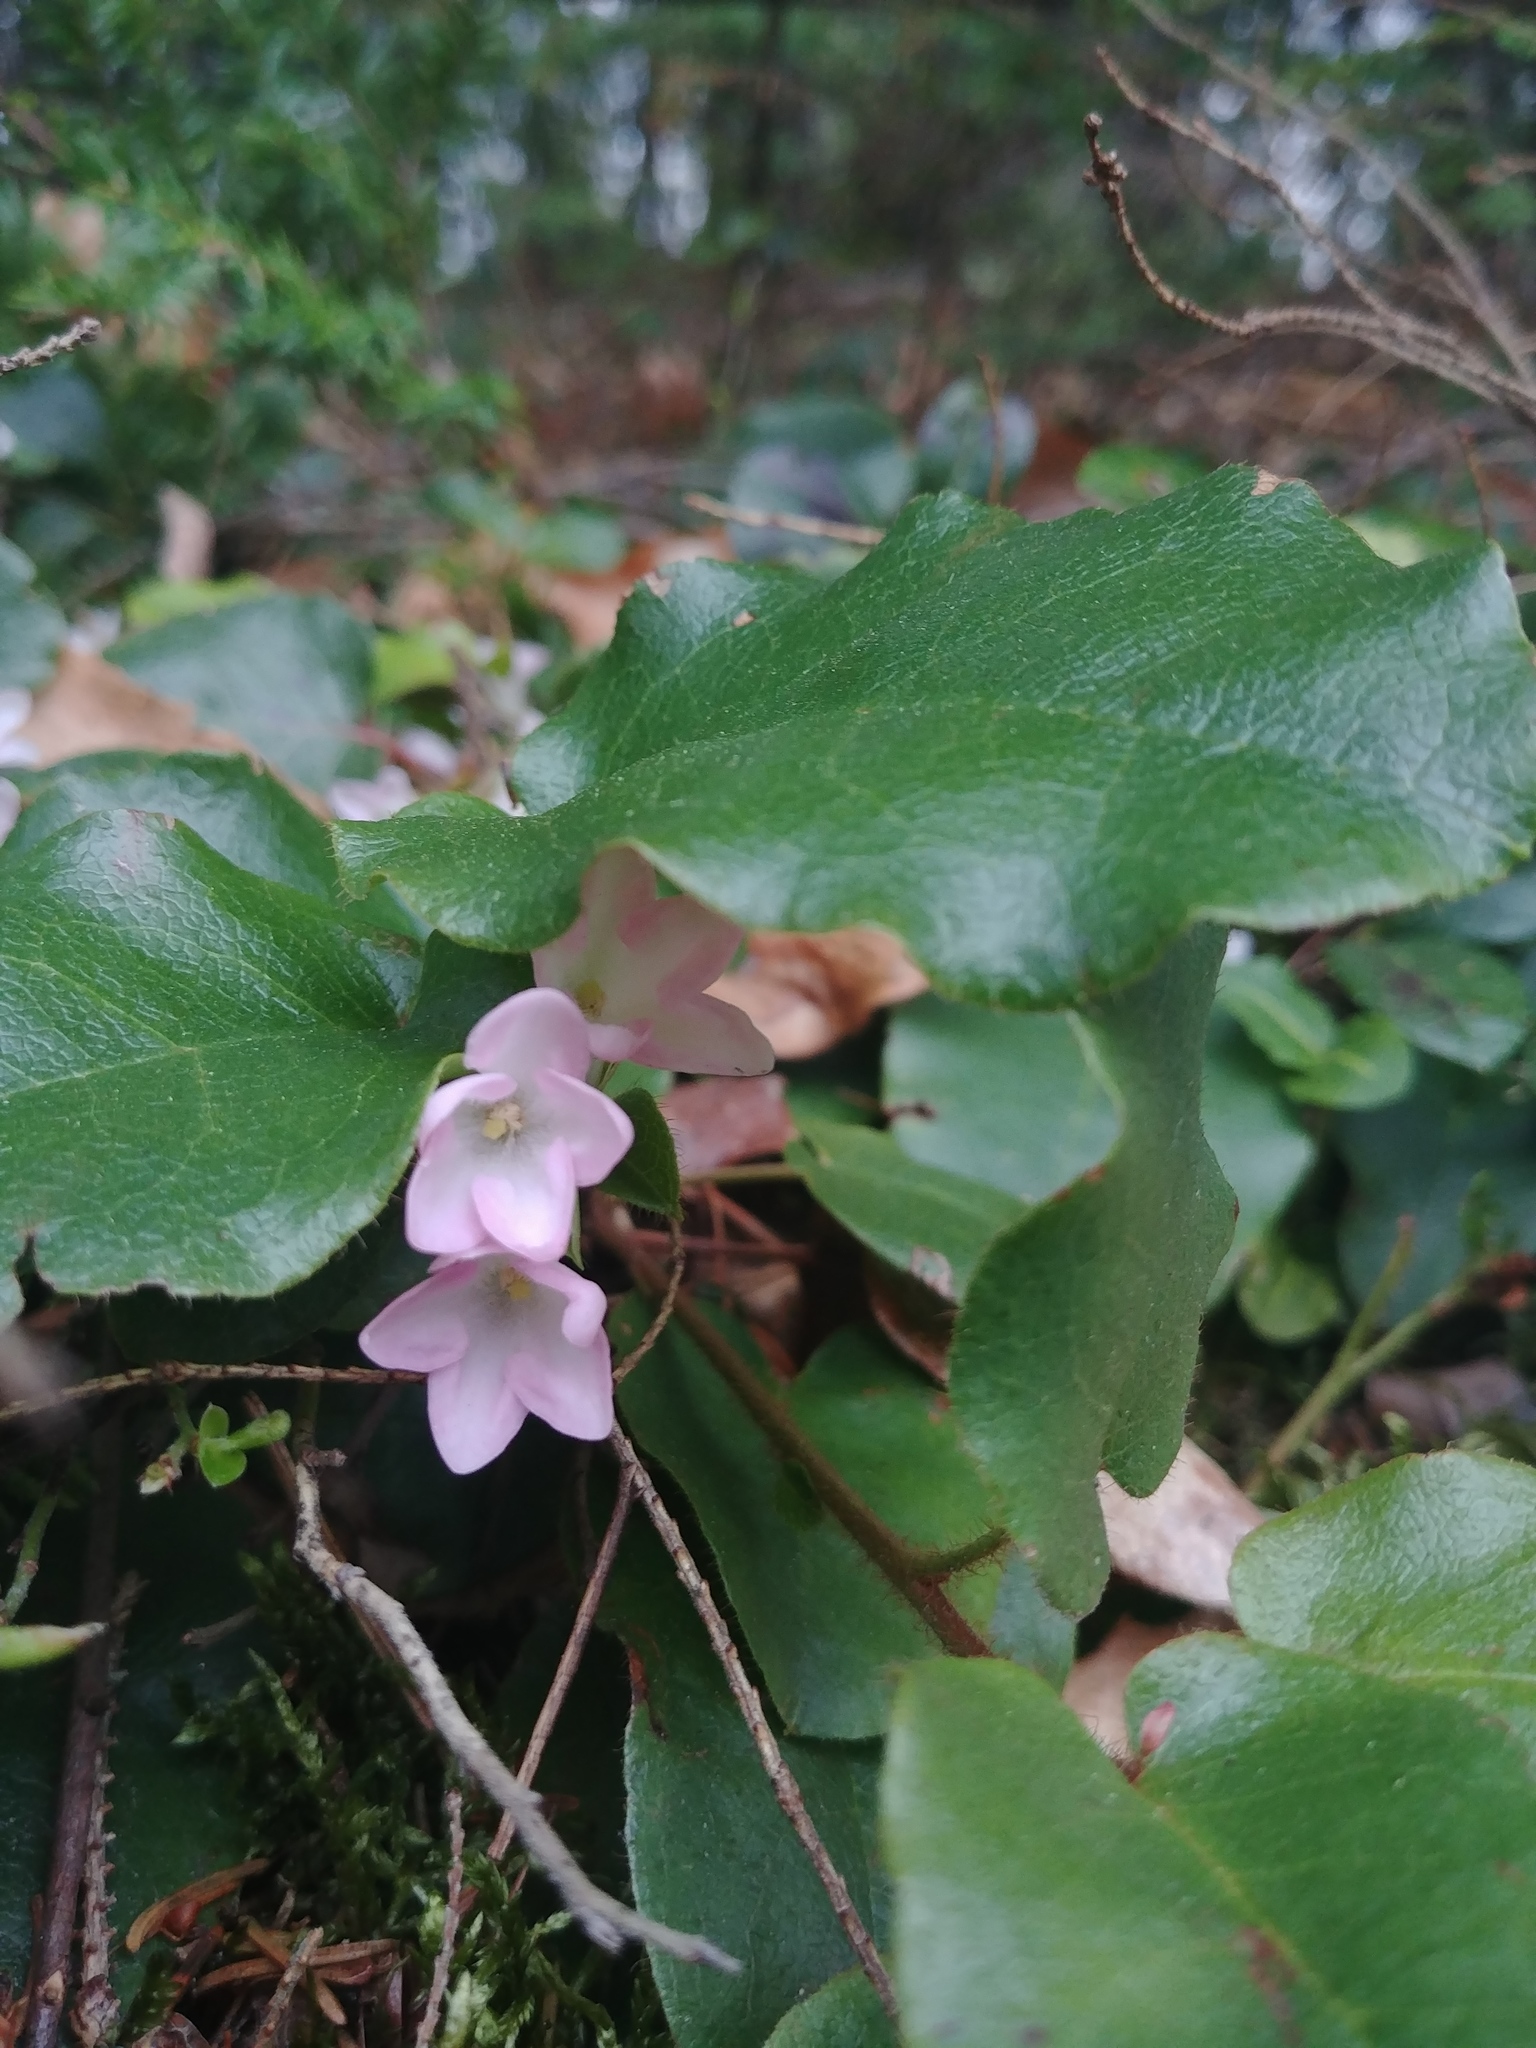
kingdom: Plantae
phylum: Tracheophyta
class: Magnoliopsida
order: Ericales
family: Ericaceae
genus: Epigaea
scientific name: Epigaea repens
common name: Gravelroot
